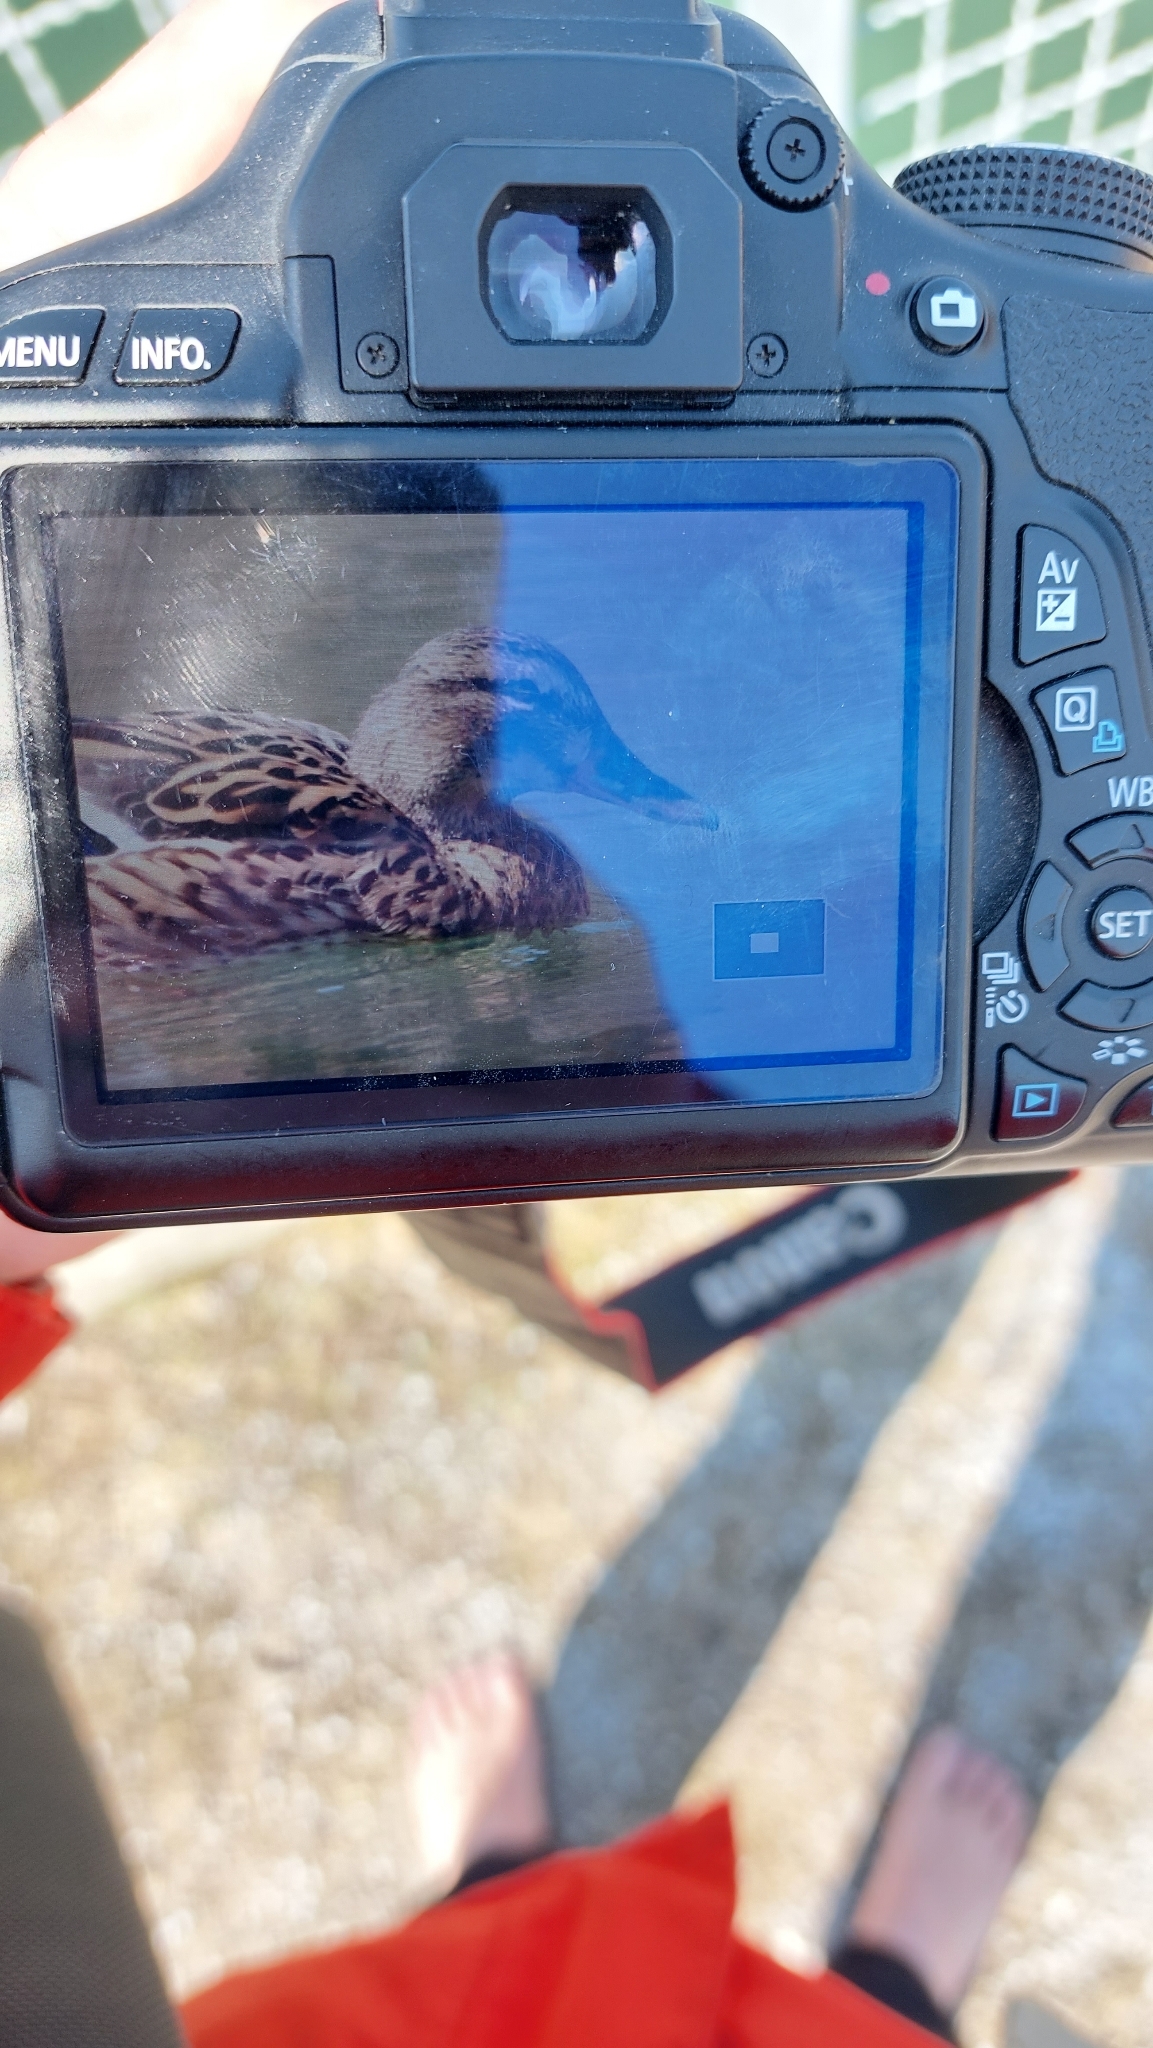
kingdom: Animalia
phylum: Chordata
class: Aves
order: Anseriformes
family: Anatidae
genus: Anas
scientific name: Anas platyrhynchos
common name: Mallard
